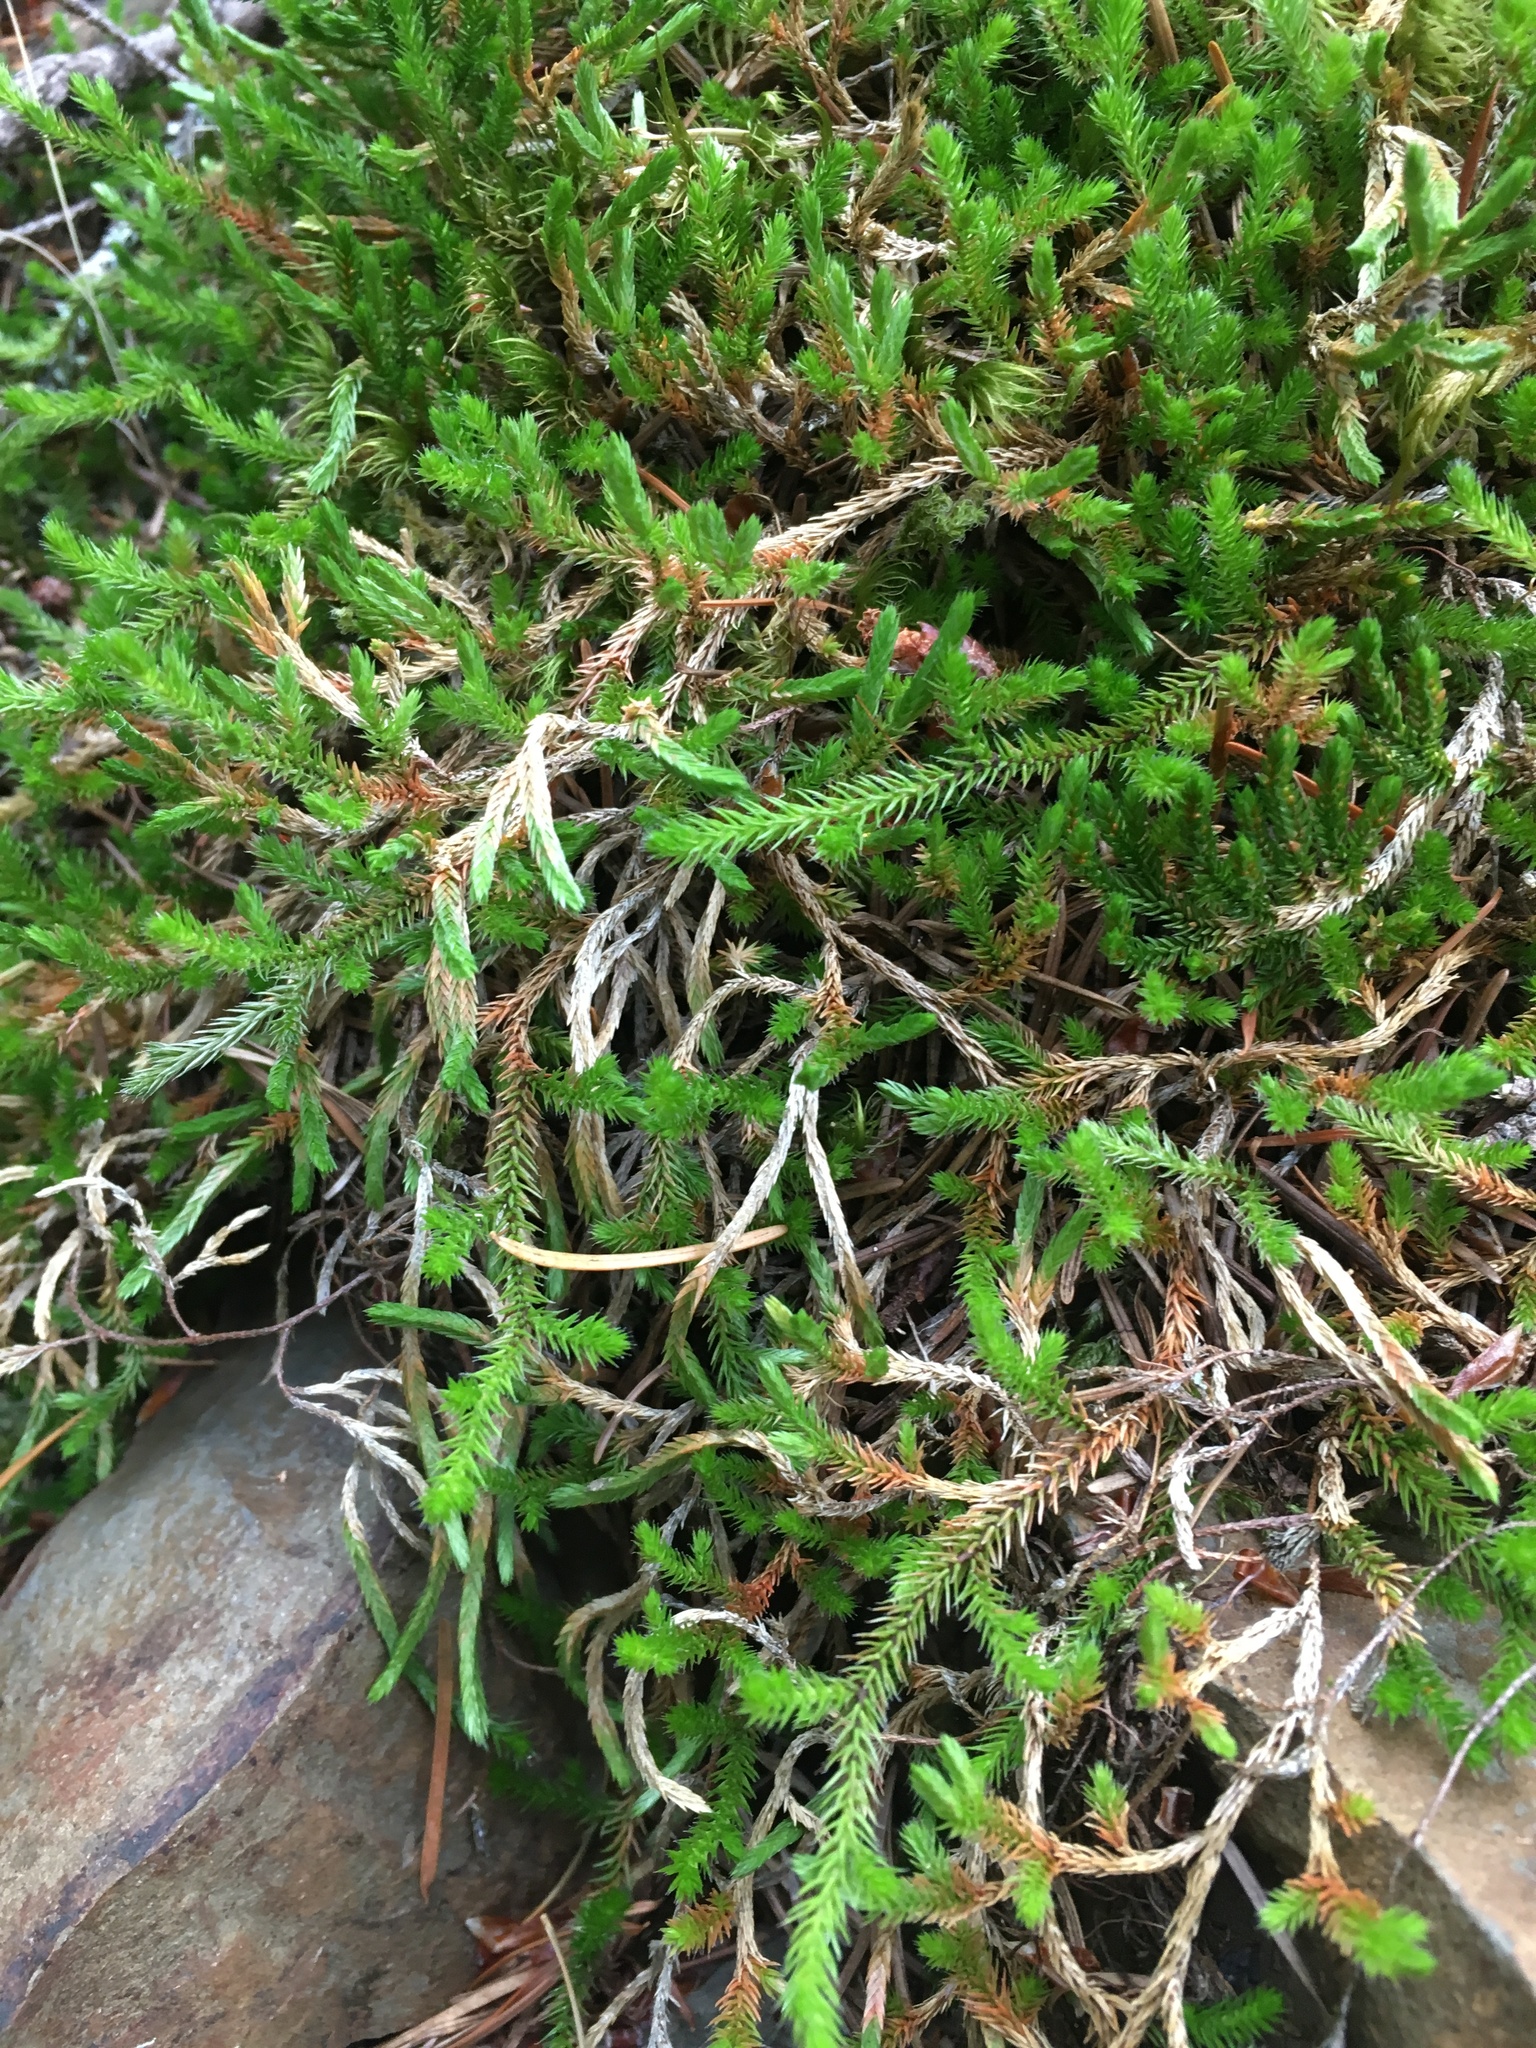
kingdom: Plantae
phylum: Tracheophyta
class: Lycopodiopsida
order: Selaginellales
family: Selaginellaceae
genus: Selaginella
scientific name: Selaginella wallacei
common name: Wallace's selaginella
